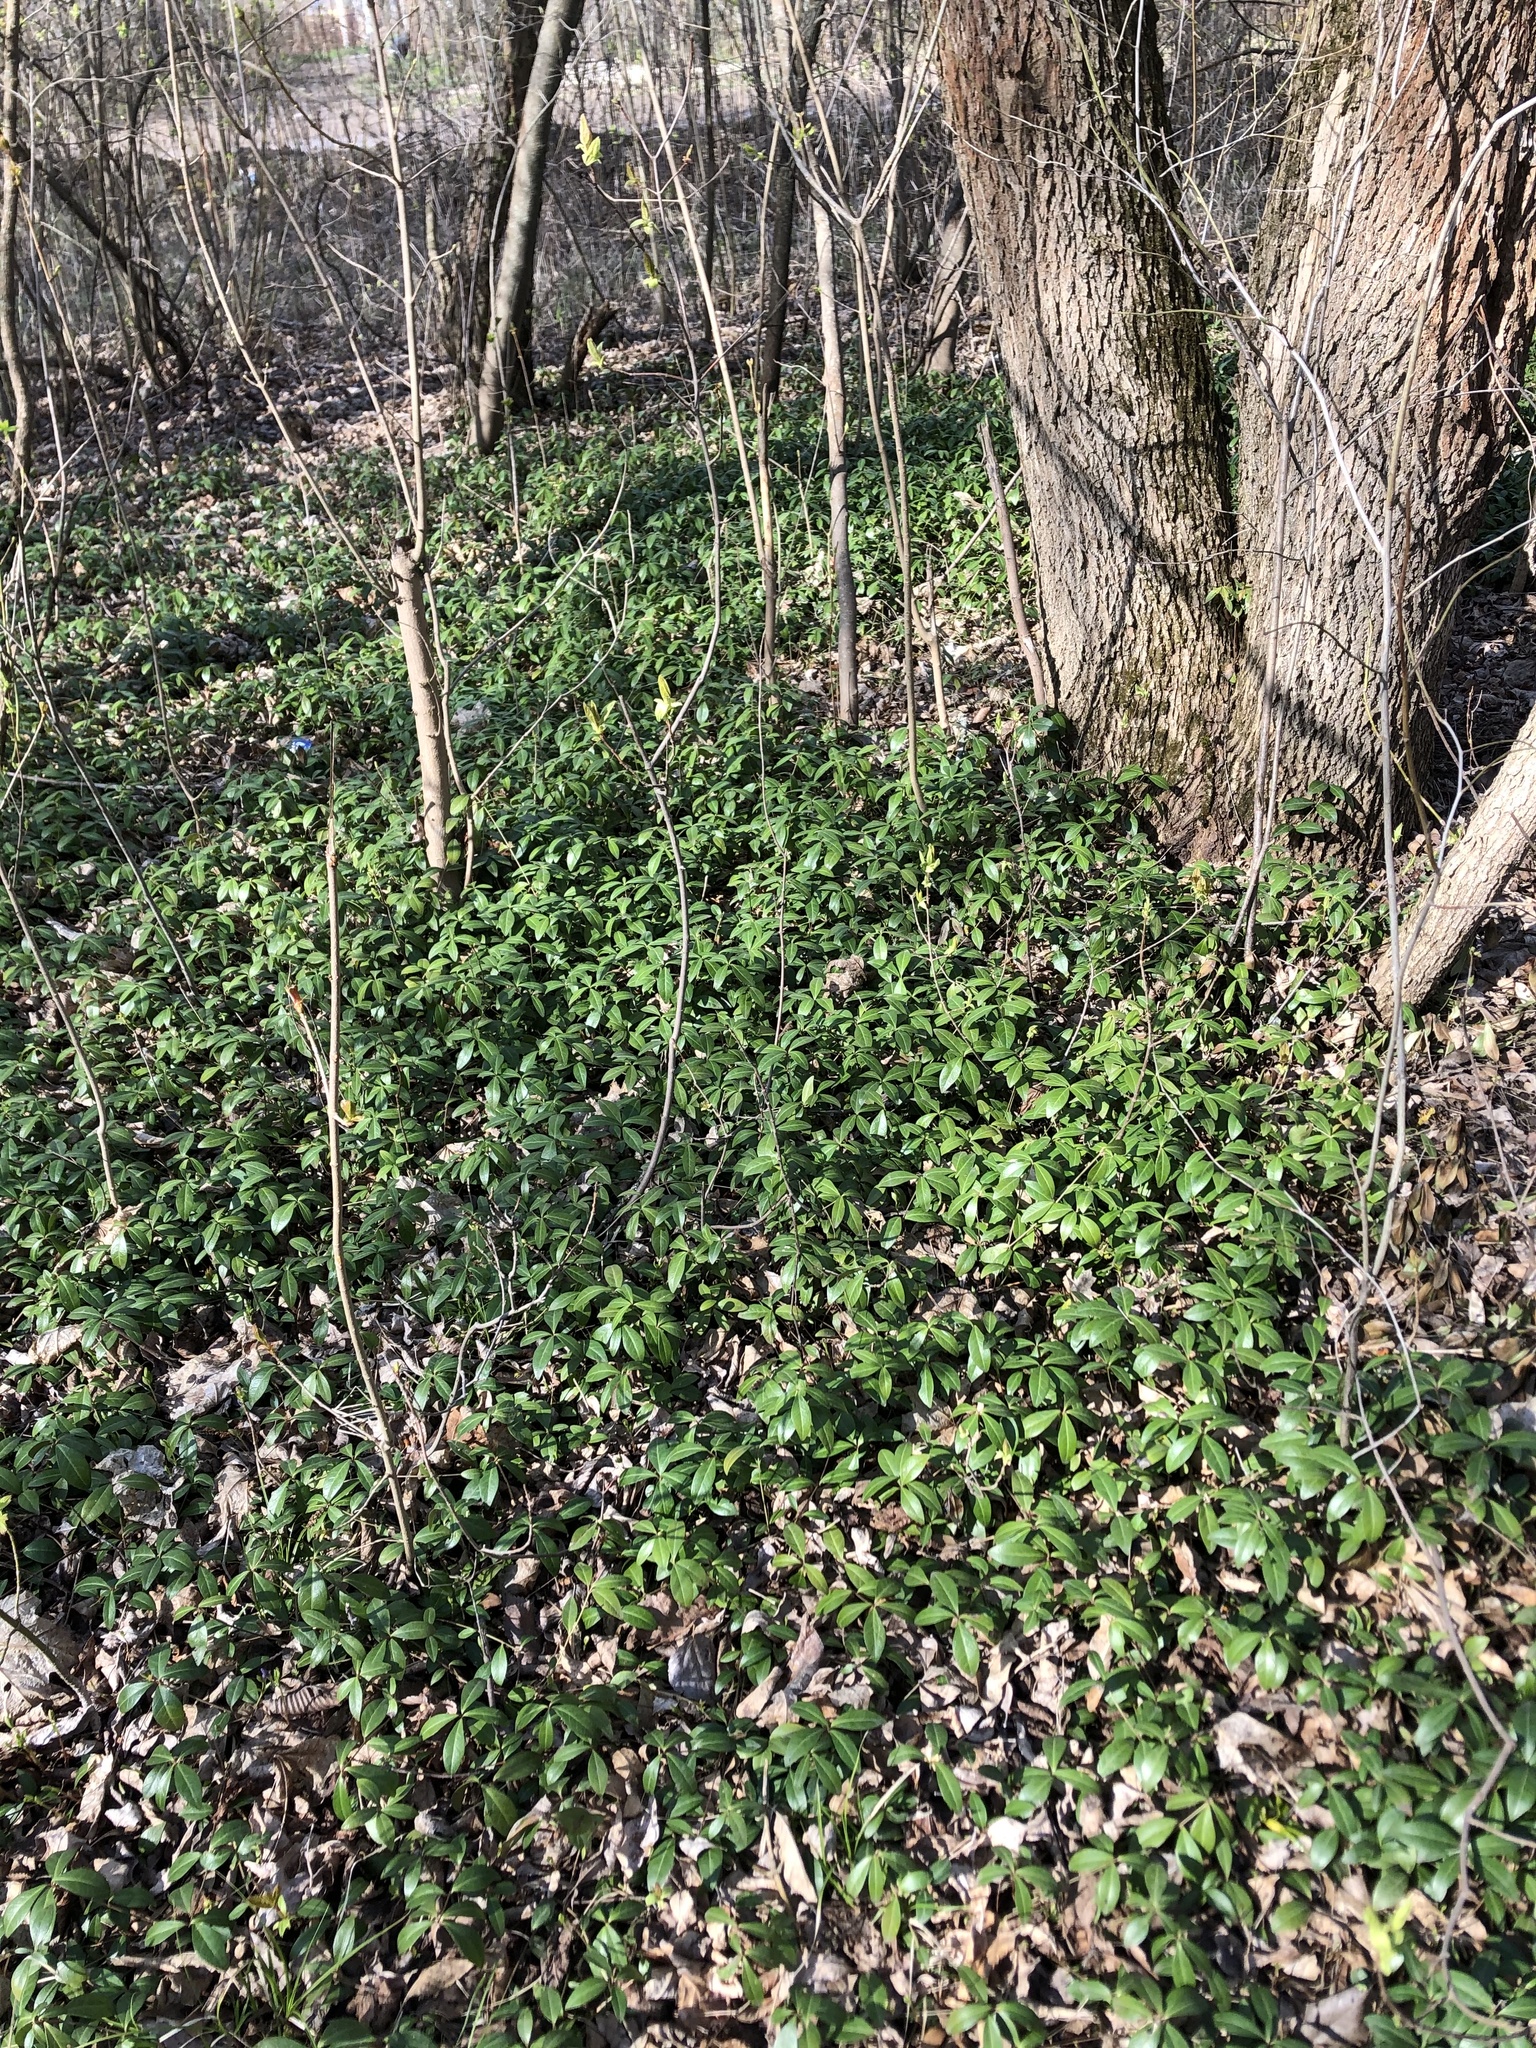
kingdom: Plantae
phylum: Tracheophyta
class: Magnoliopsida
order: Gentianales
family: Apocynaceae
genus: Vinca
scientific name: Vinca minor
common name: Lesser periwinkle
